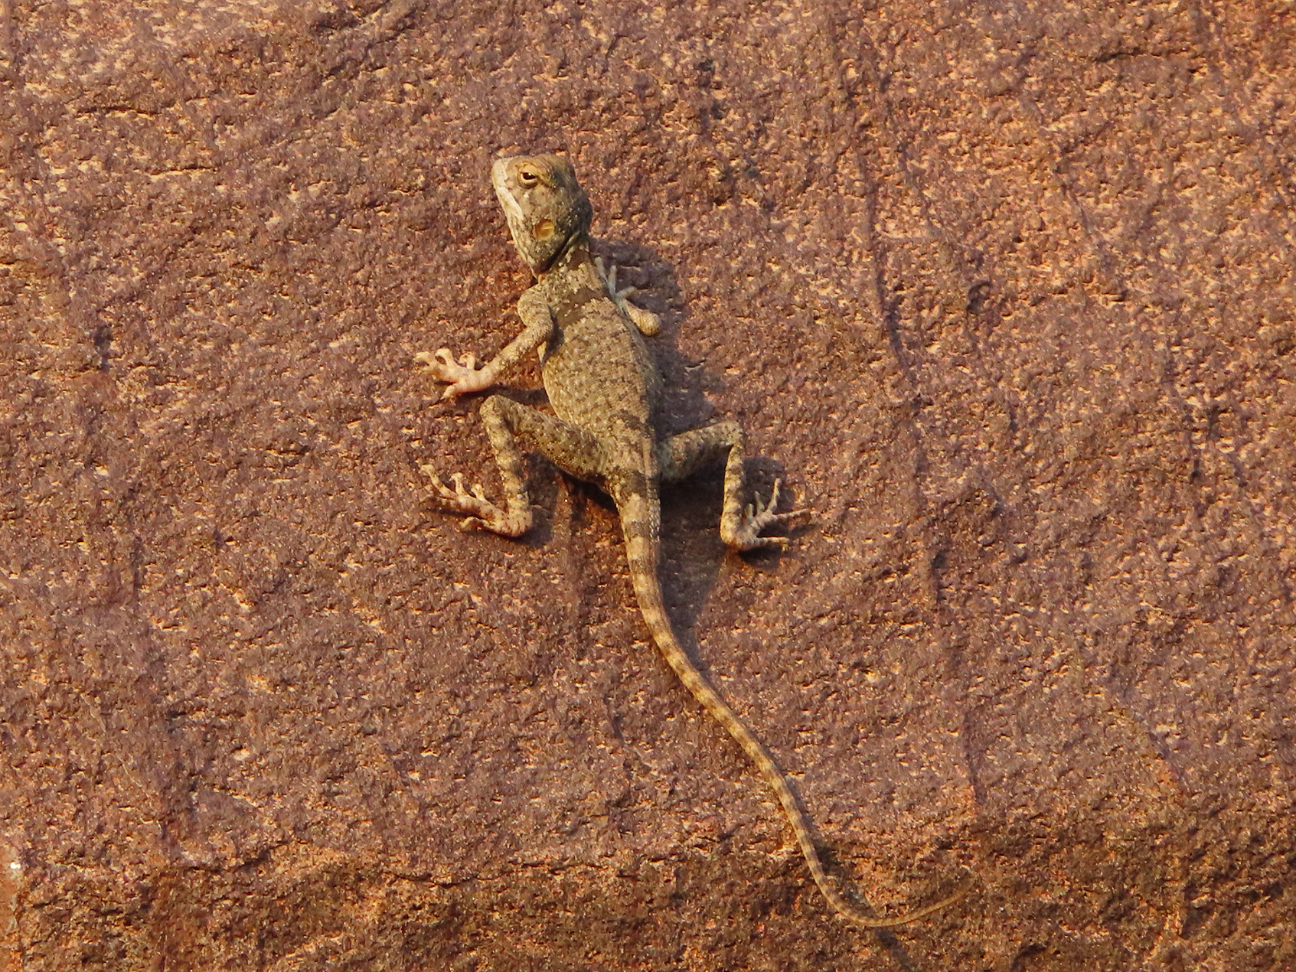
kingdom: Animalia
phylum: Chordata
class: Squamata
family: Agamidae
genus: Pseudotrapelus
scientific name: Pseudotrapelus jensvindumi
